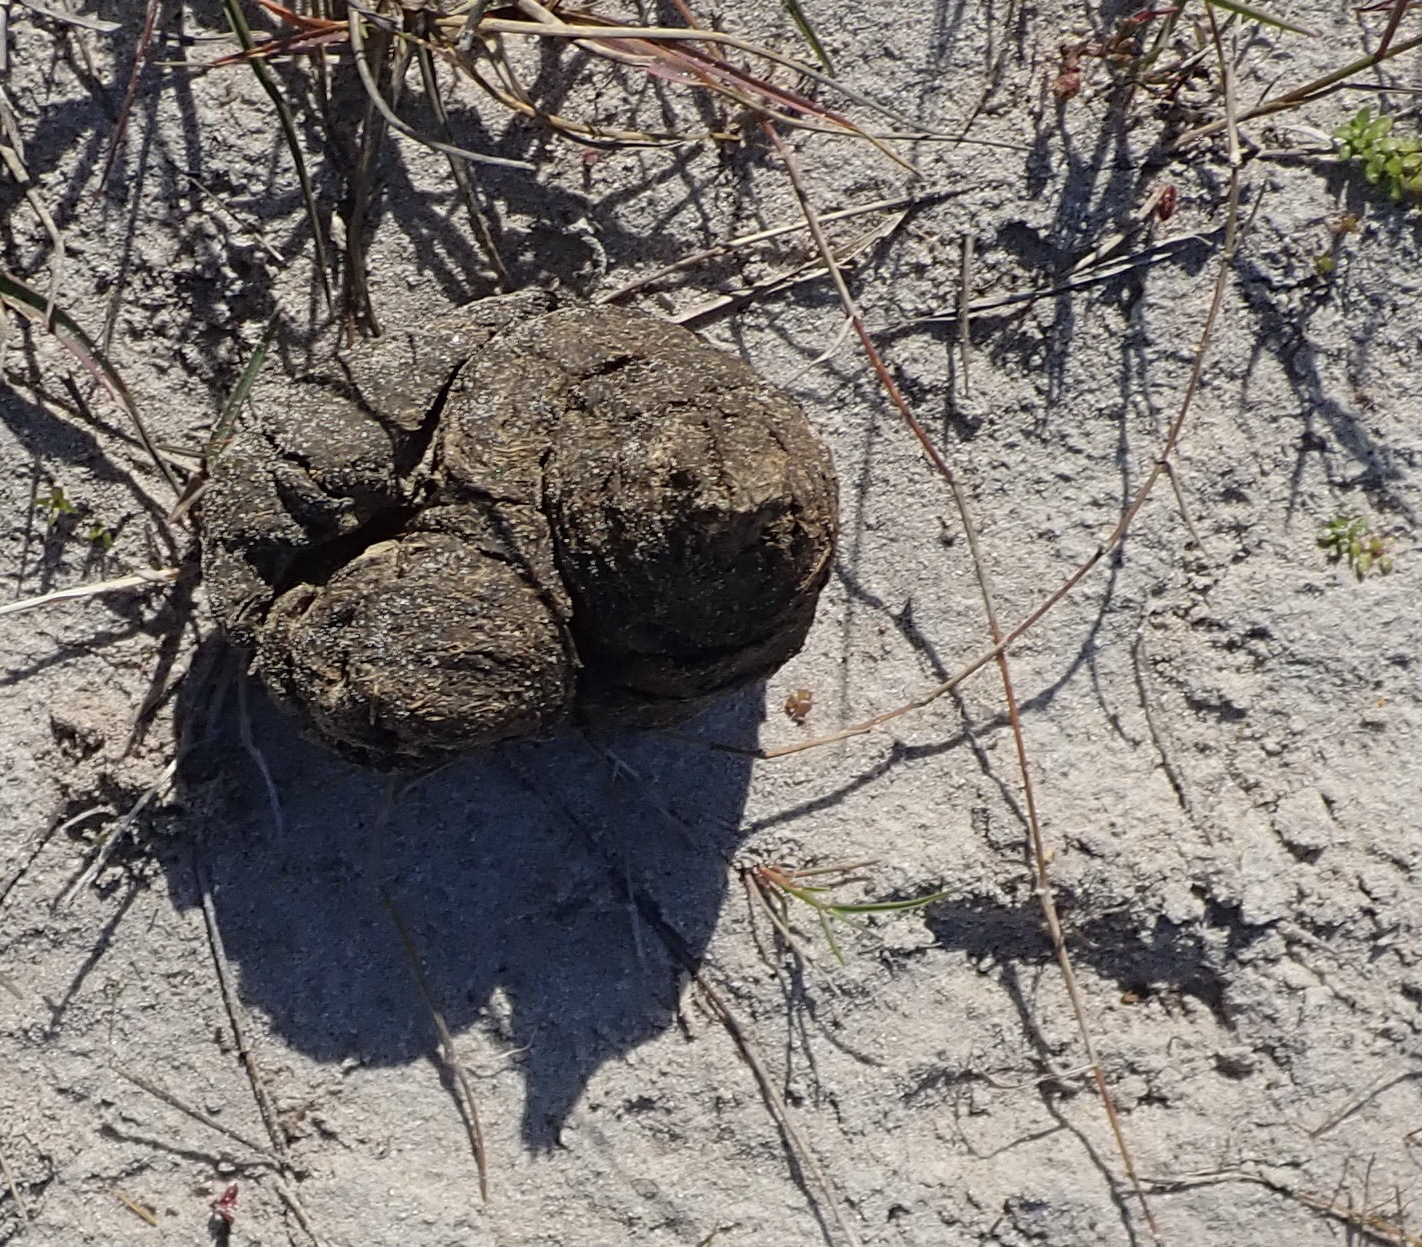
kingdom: Animalia
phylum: Chordata
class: Aves
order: Struthioniformes
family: Struthionidae
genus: Struthio
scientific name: Struthio camelus
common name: Common ostrich
